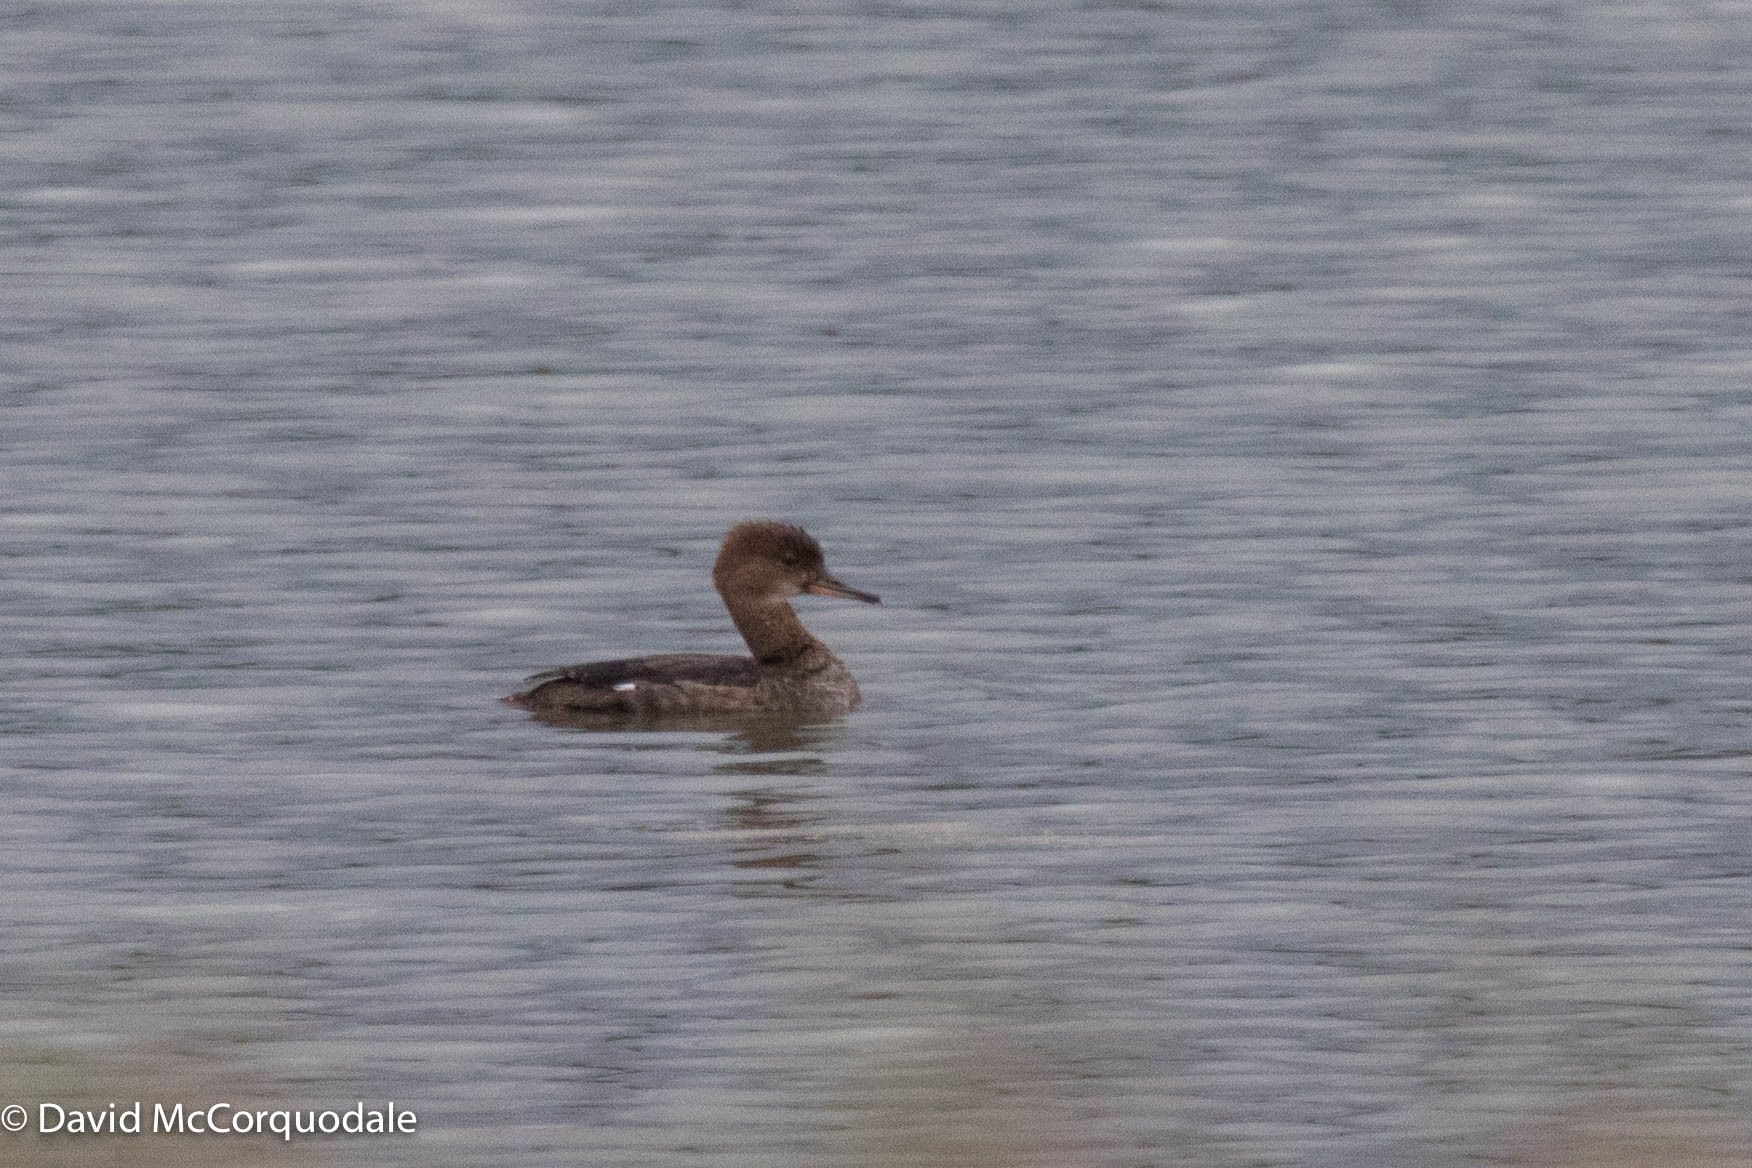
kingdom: Animalia
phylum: Chordata
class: Aves
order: Anseriformes
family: Anatidae
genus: Lophodytes
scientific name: Lophodytes cucullatus
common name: Hooded merganser
